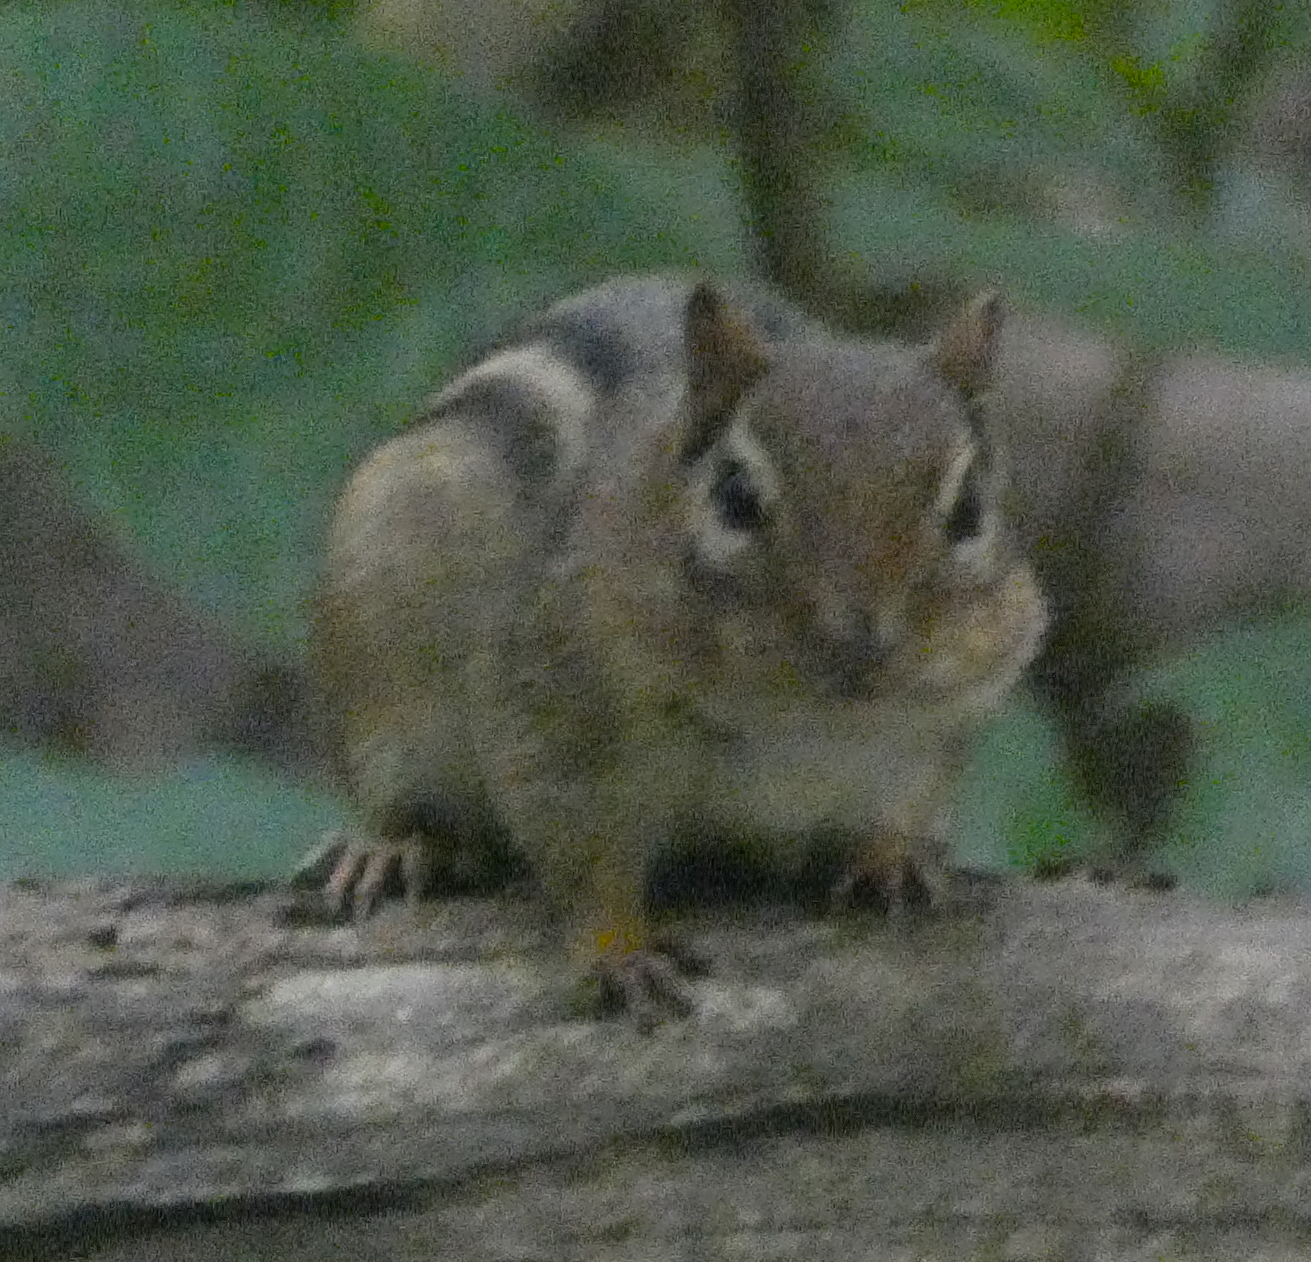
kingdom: Animalia
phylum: Chordata
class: Mammalia
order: Rodentia
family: Sciuridae
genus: Tamias
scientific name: Tamias striatus
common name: Eastern chipmunk
